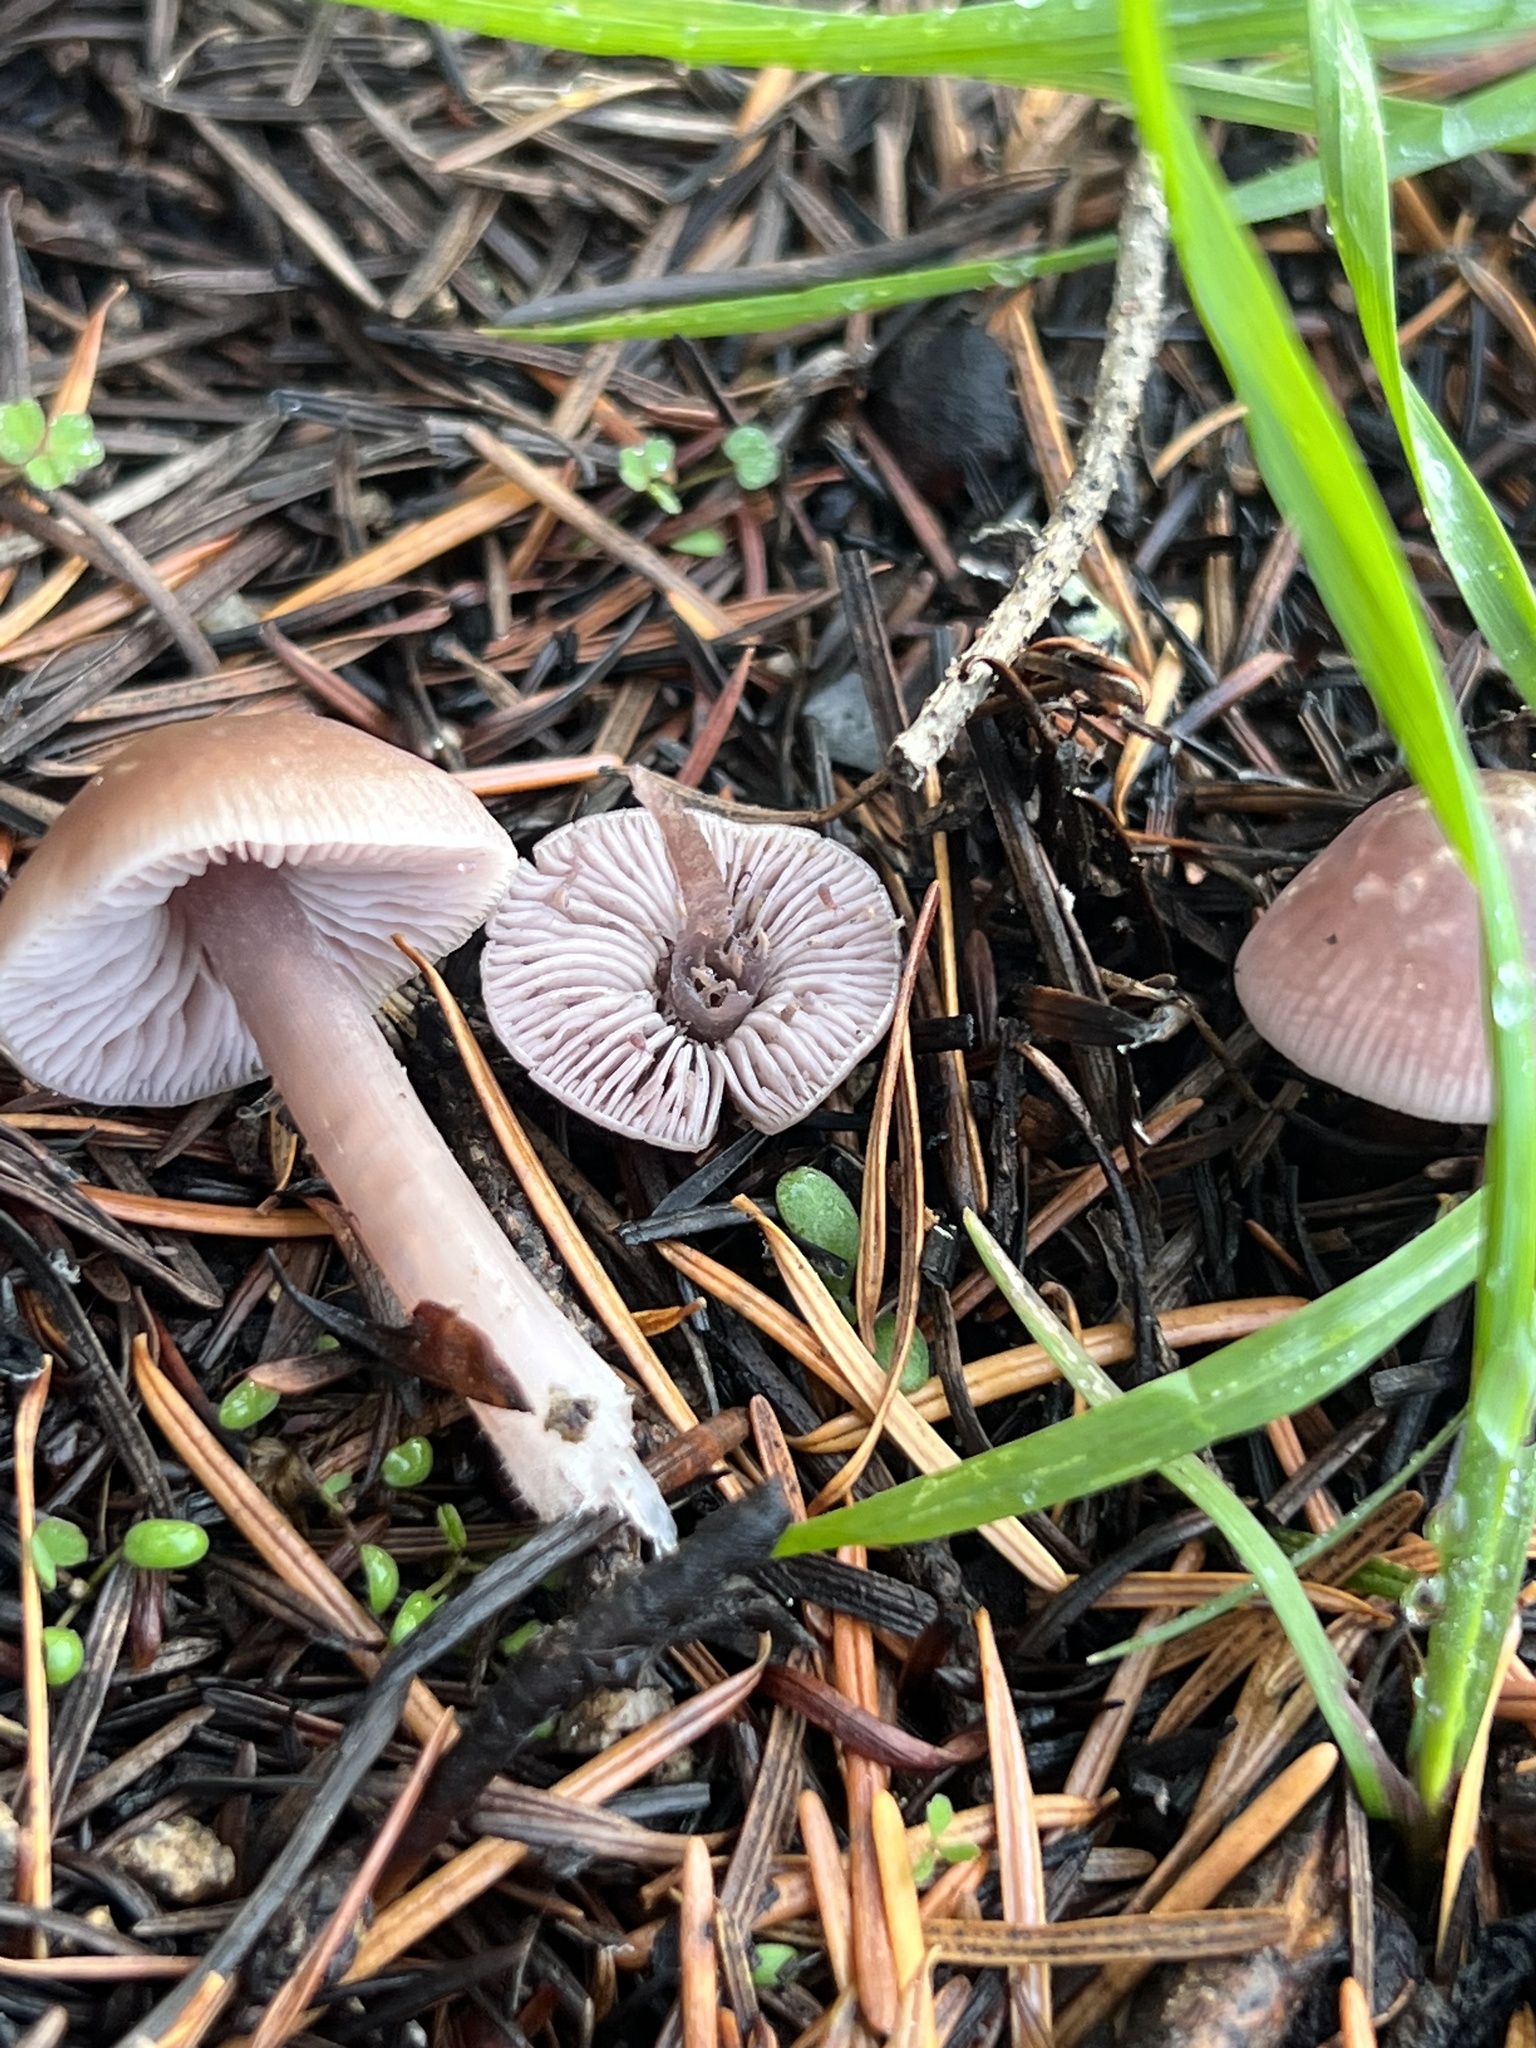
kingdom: Fungi
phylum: Basidiomycota
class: Agaricomycetes
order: Agaricales
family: Mycenaceae
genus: Mycena
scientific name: Mycena pura
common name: Lilac bonnet
